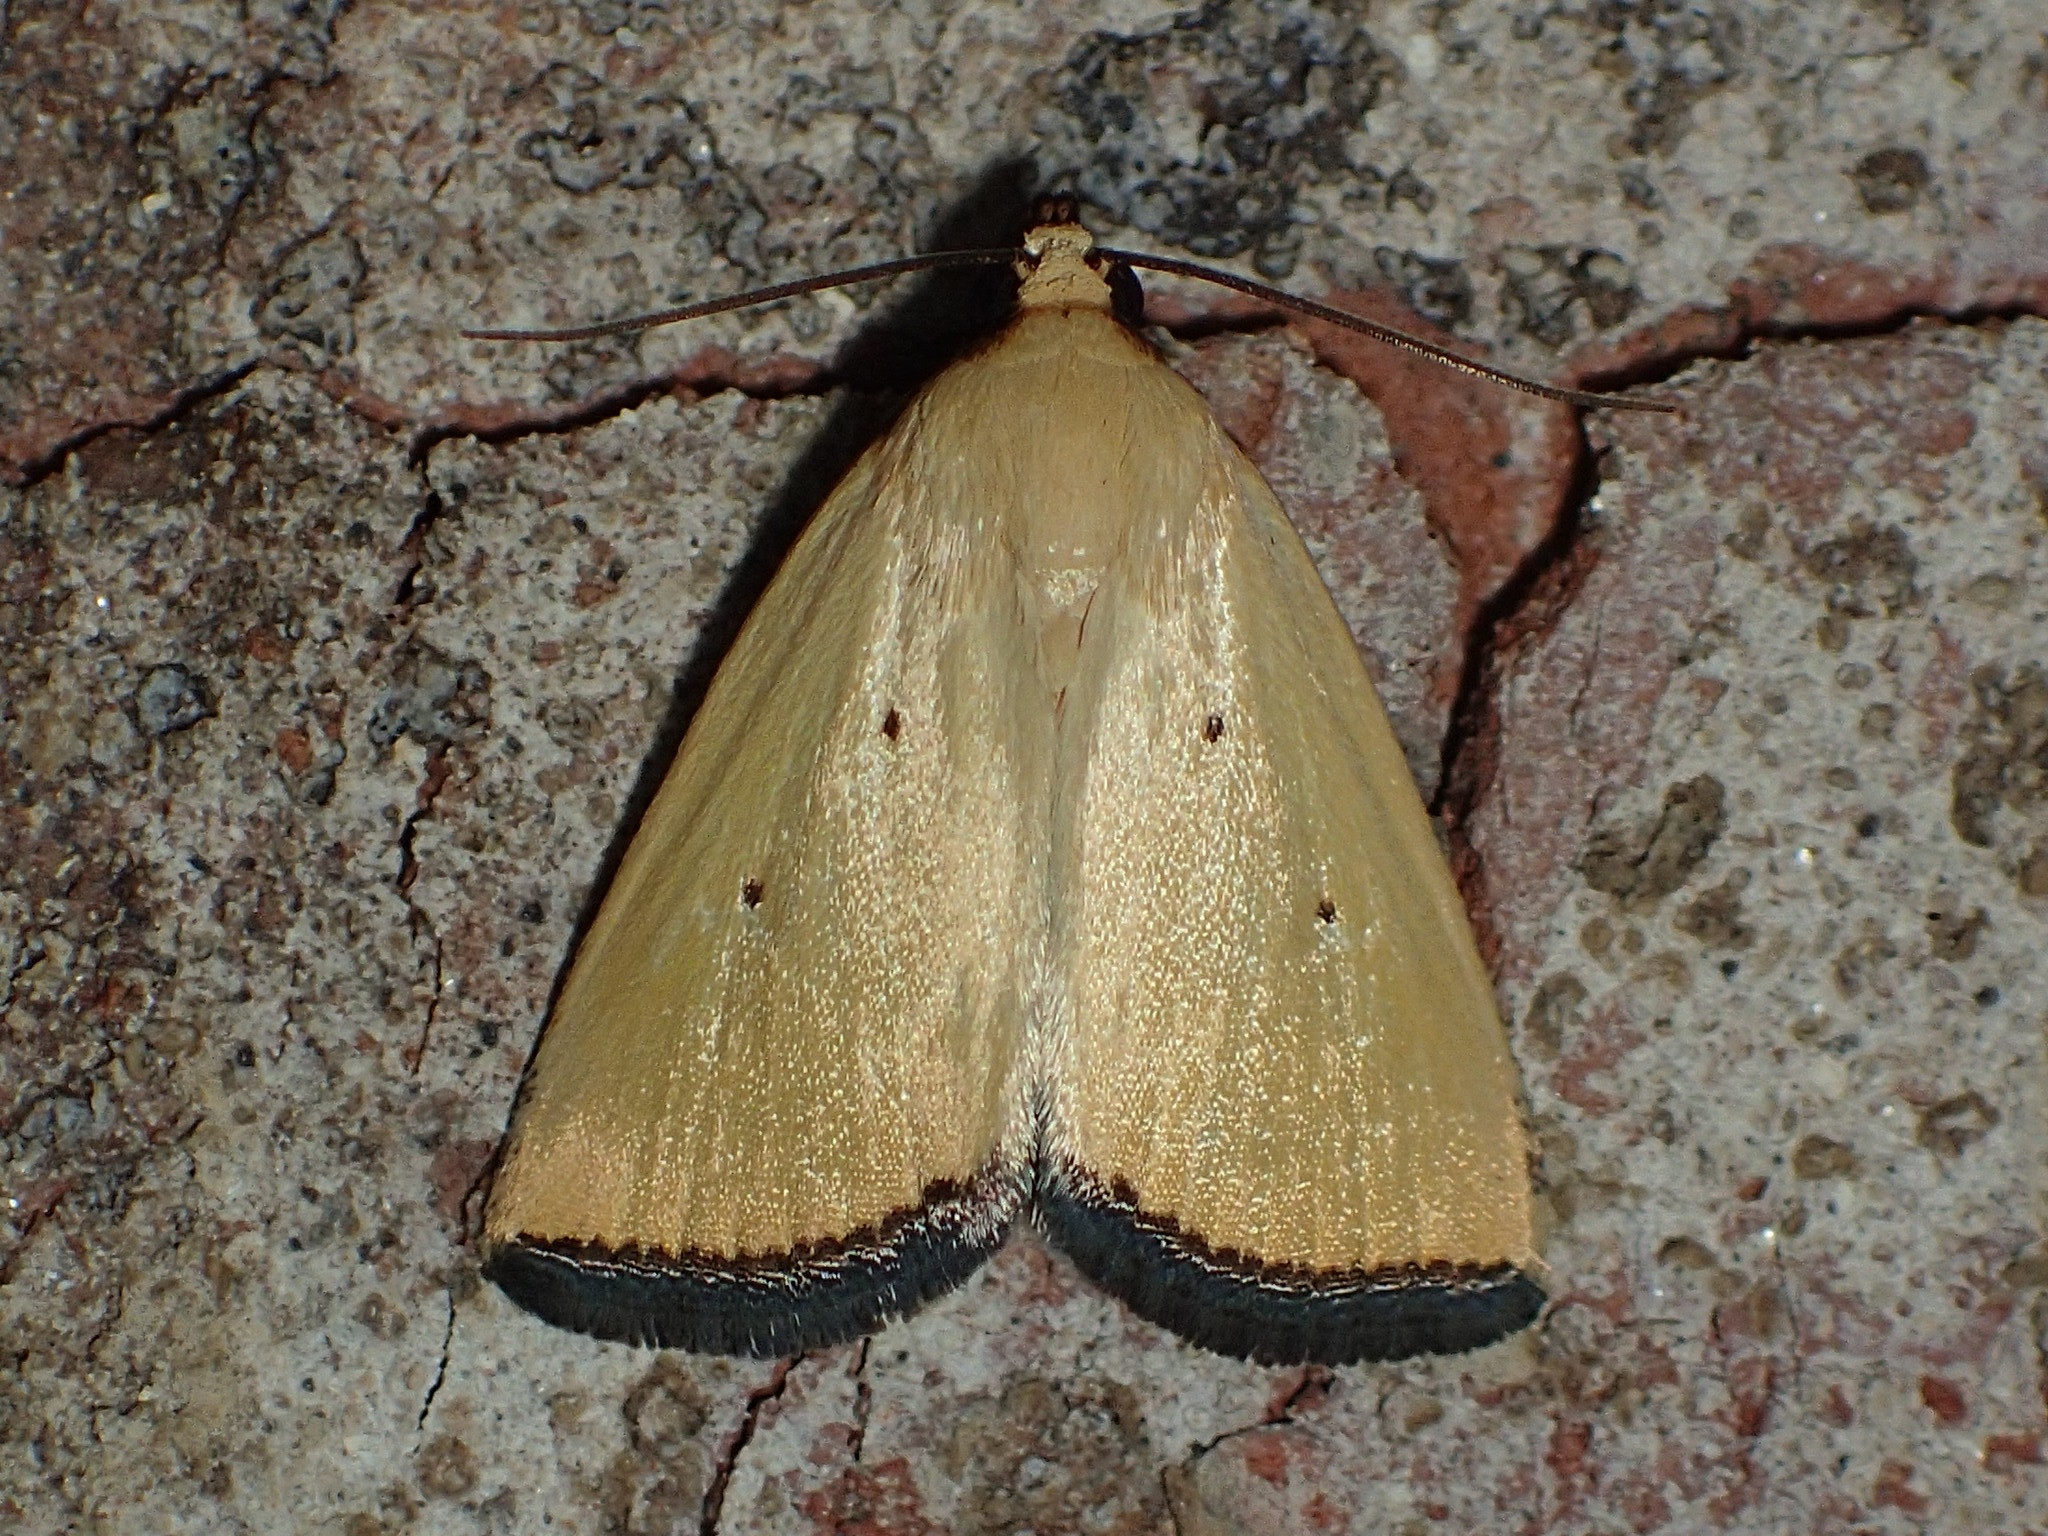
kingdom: Animalia
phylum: Arthropoda
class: Insecta
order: Lepidoptera
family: Noctuidae
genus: Marimatha
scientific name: Marimatha nigrofimbria
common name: Black-bordered lemon moth
